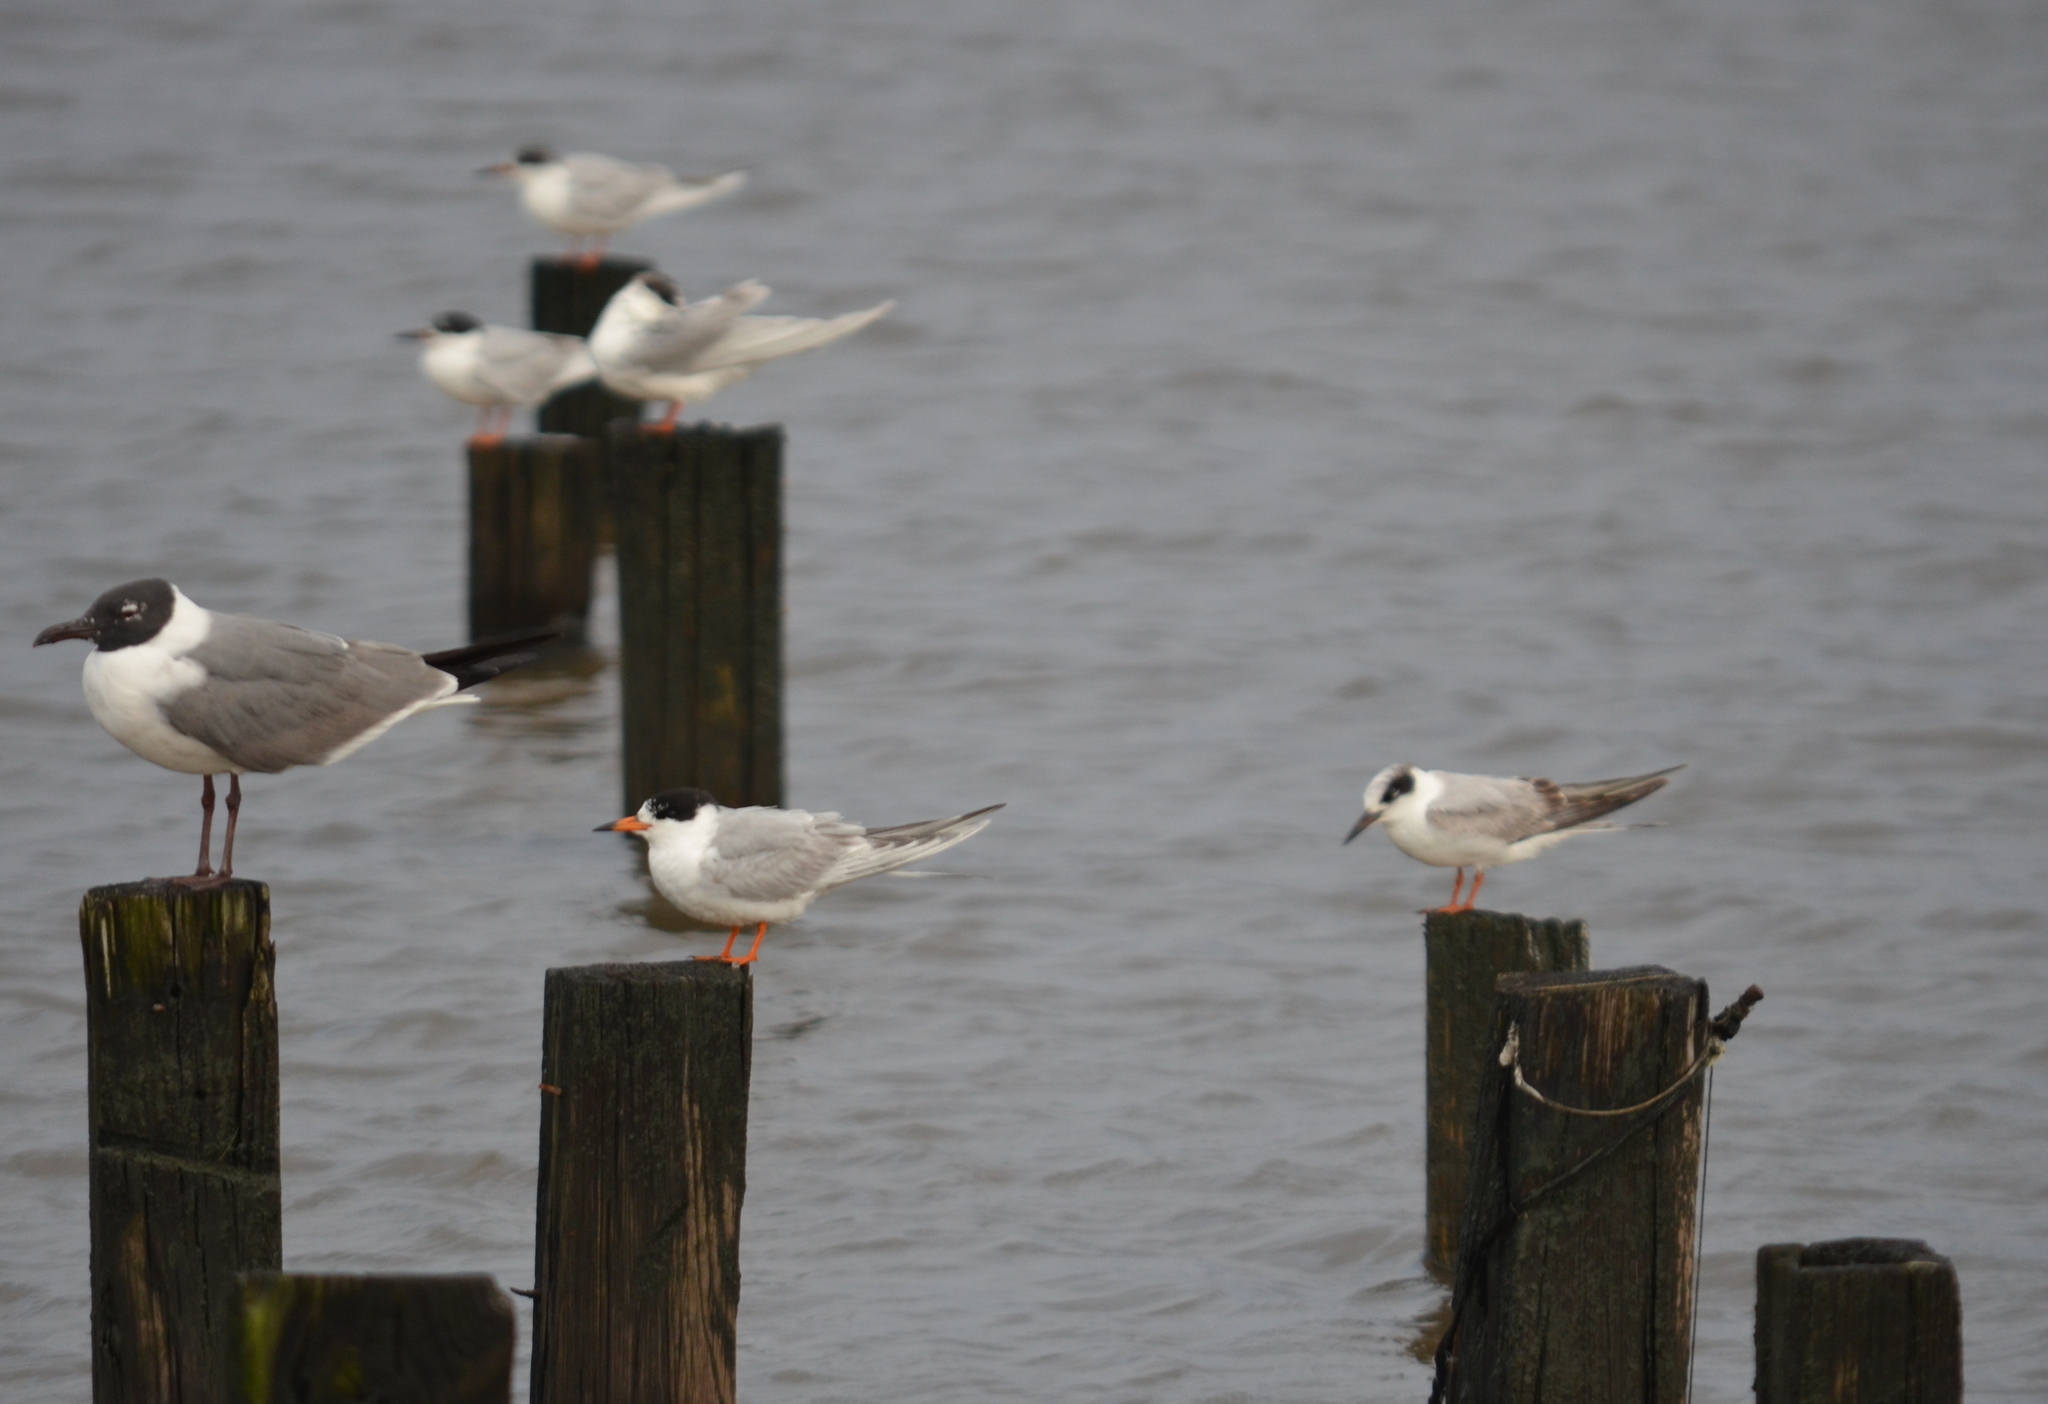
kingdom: Animalia
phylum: Chordata
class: Aves
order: Charadriiformes
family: Laridae
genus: Sterna
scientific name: Sterna forsteri
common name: Forster's tern
